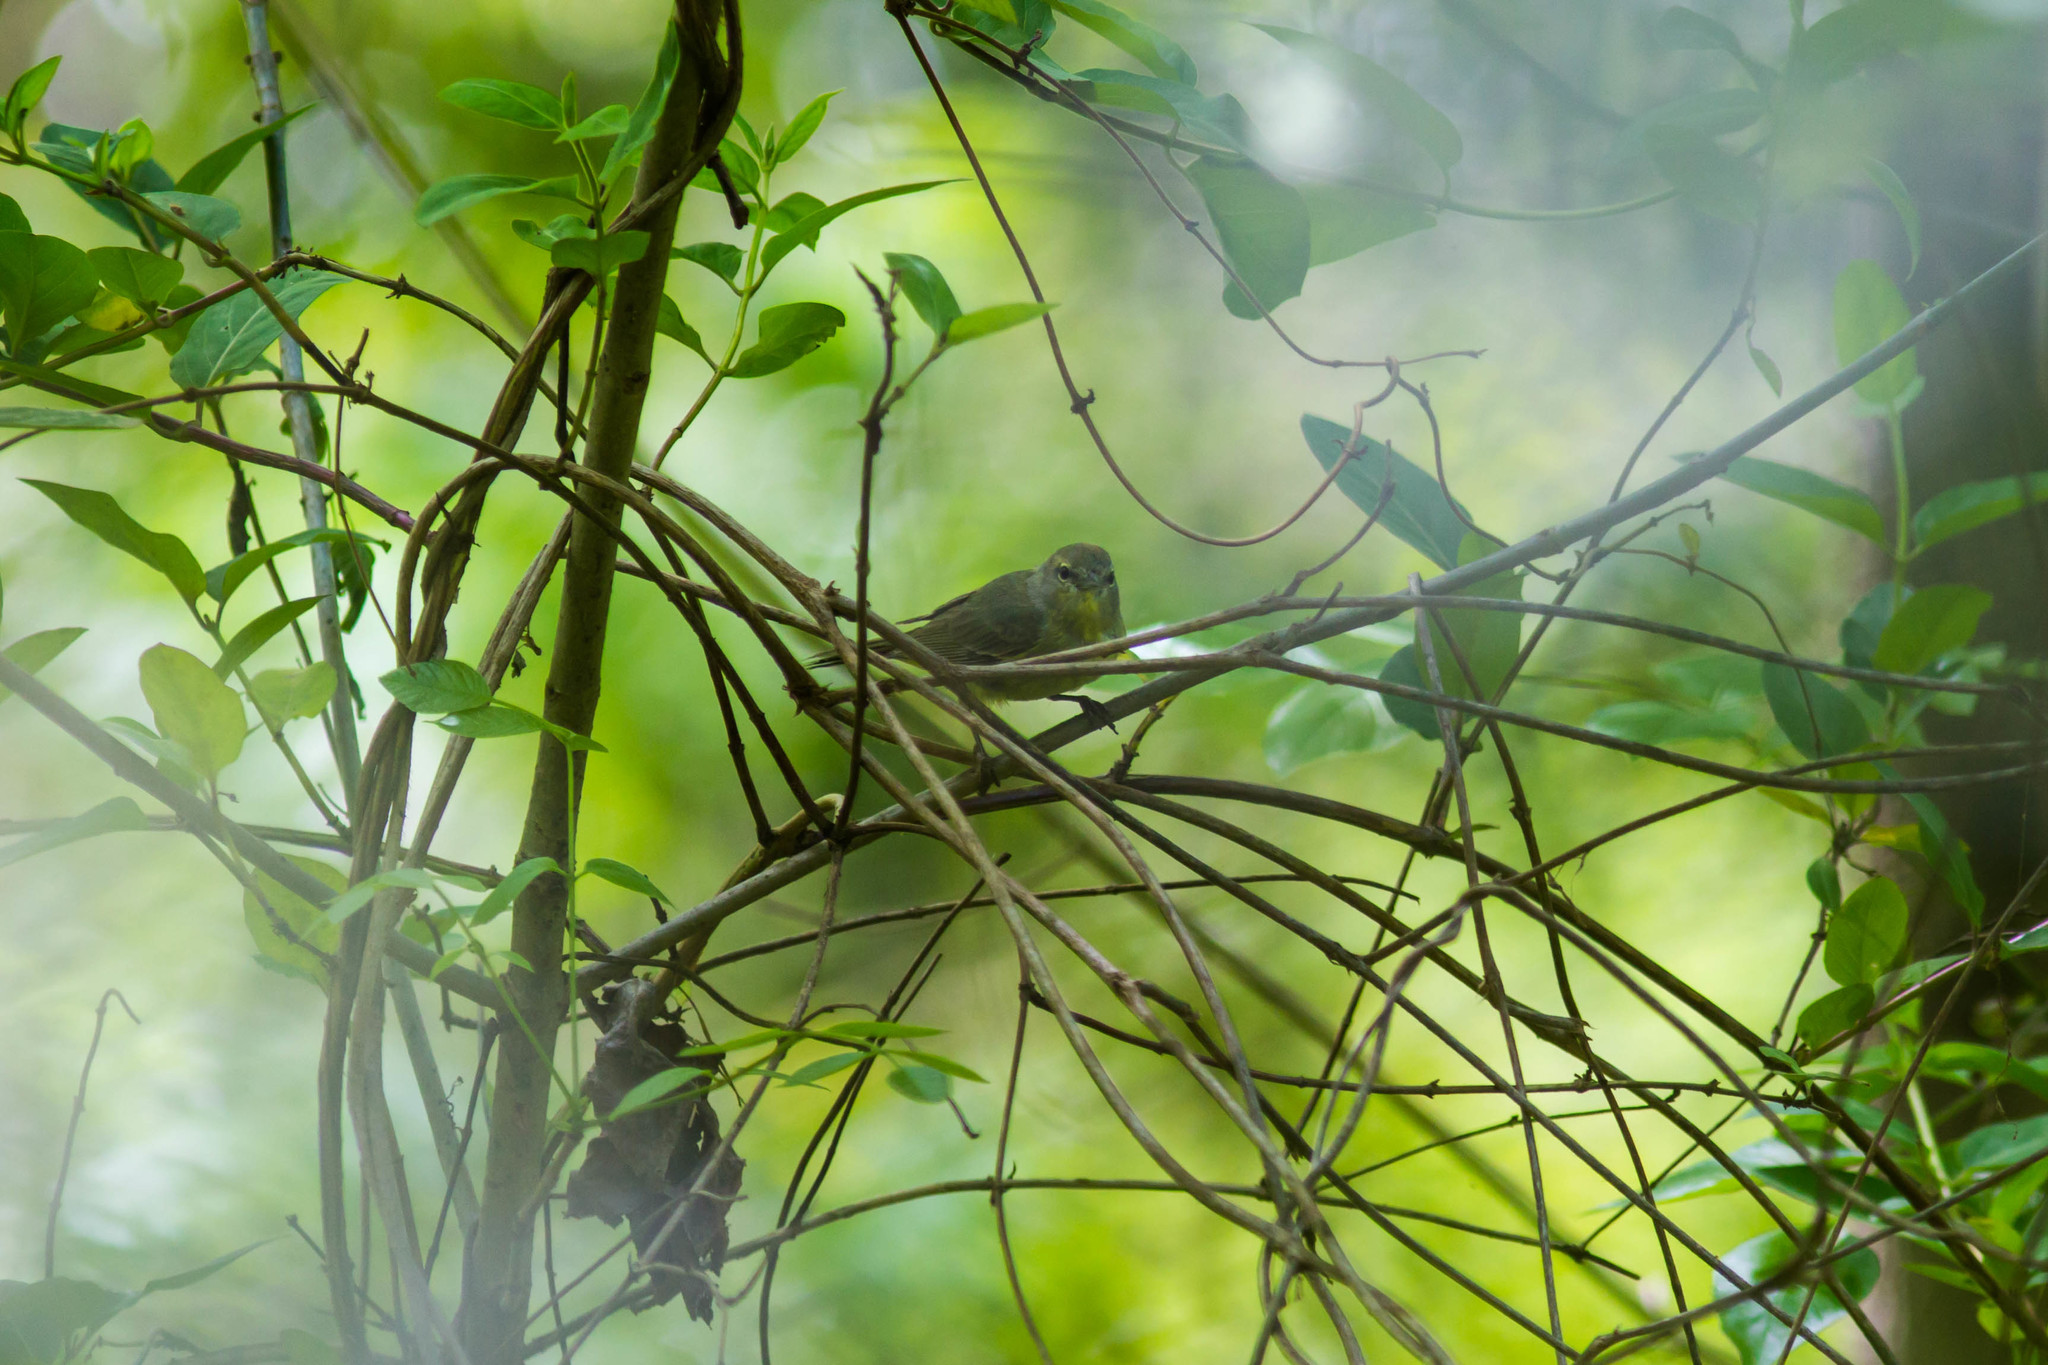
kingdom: Animalia
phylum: Chordata
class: Aves
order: Passeriformes
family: Parulidae
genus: Leiothlypis
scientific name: Leiothlypis celata
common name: Orange-crowned warbler
